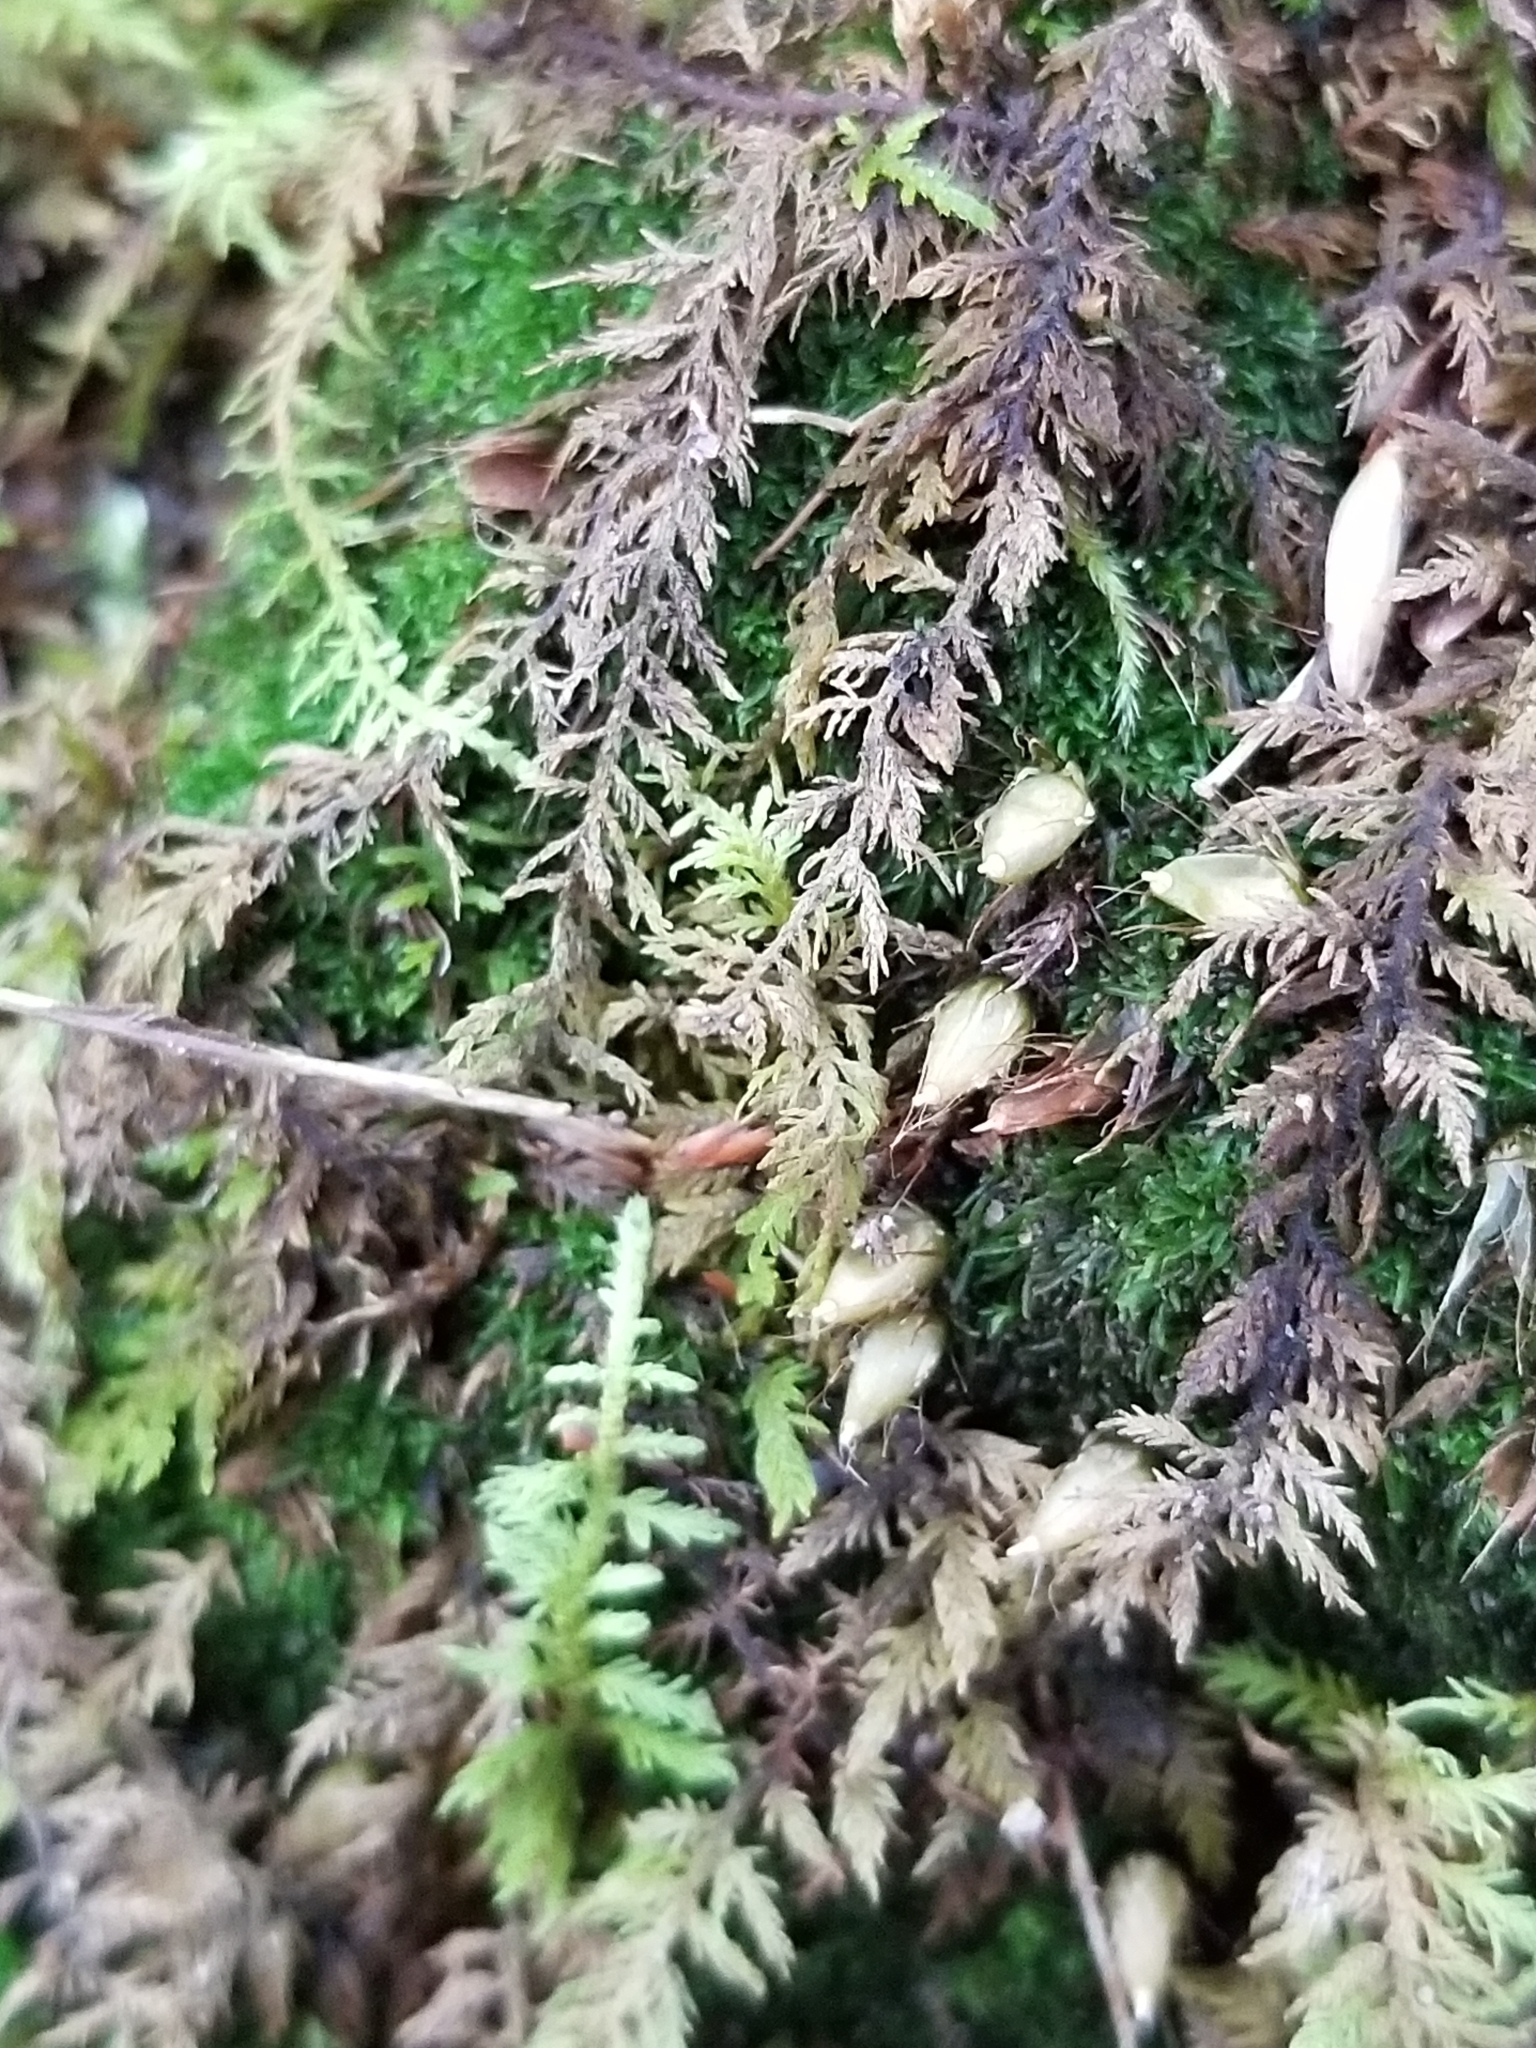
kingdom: Plantae
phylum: Bryophyta
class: Bryopsida
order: Diphysciales
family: Diphysciaceae
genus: Diphyscium
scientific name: Diphyscium foliosum
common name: Nut moss
